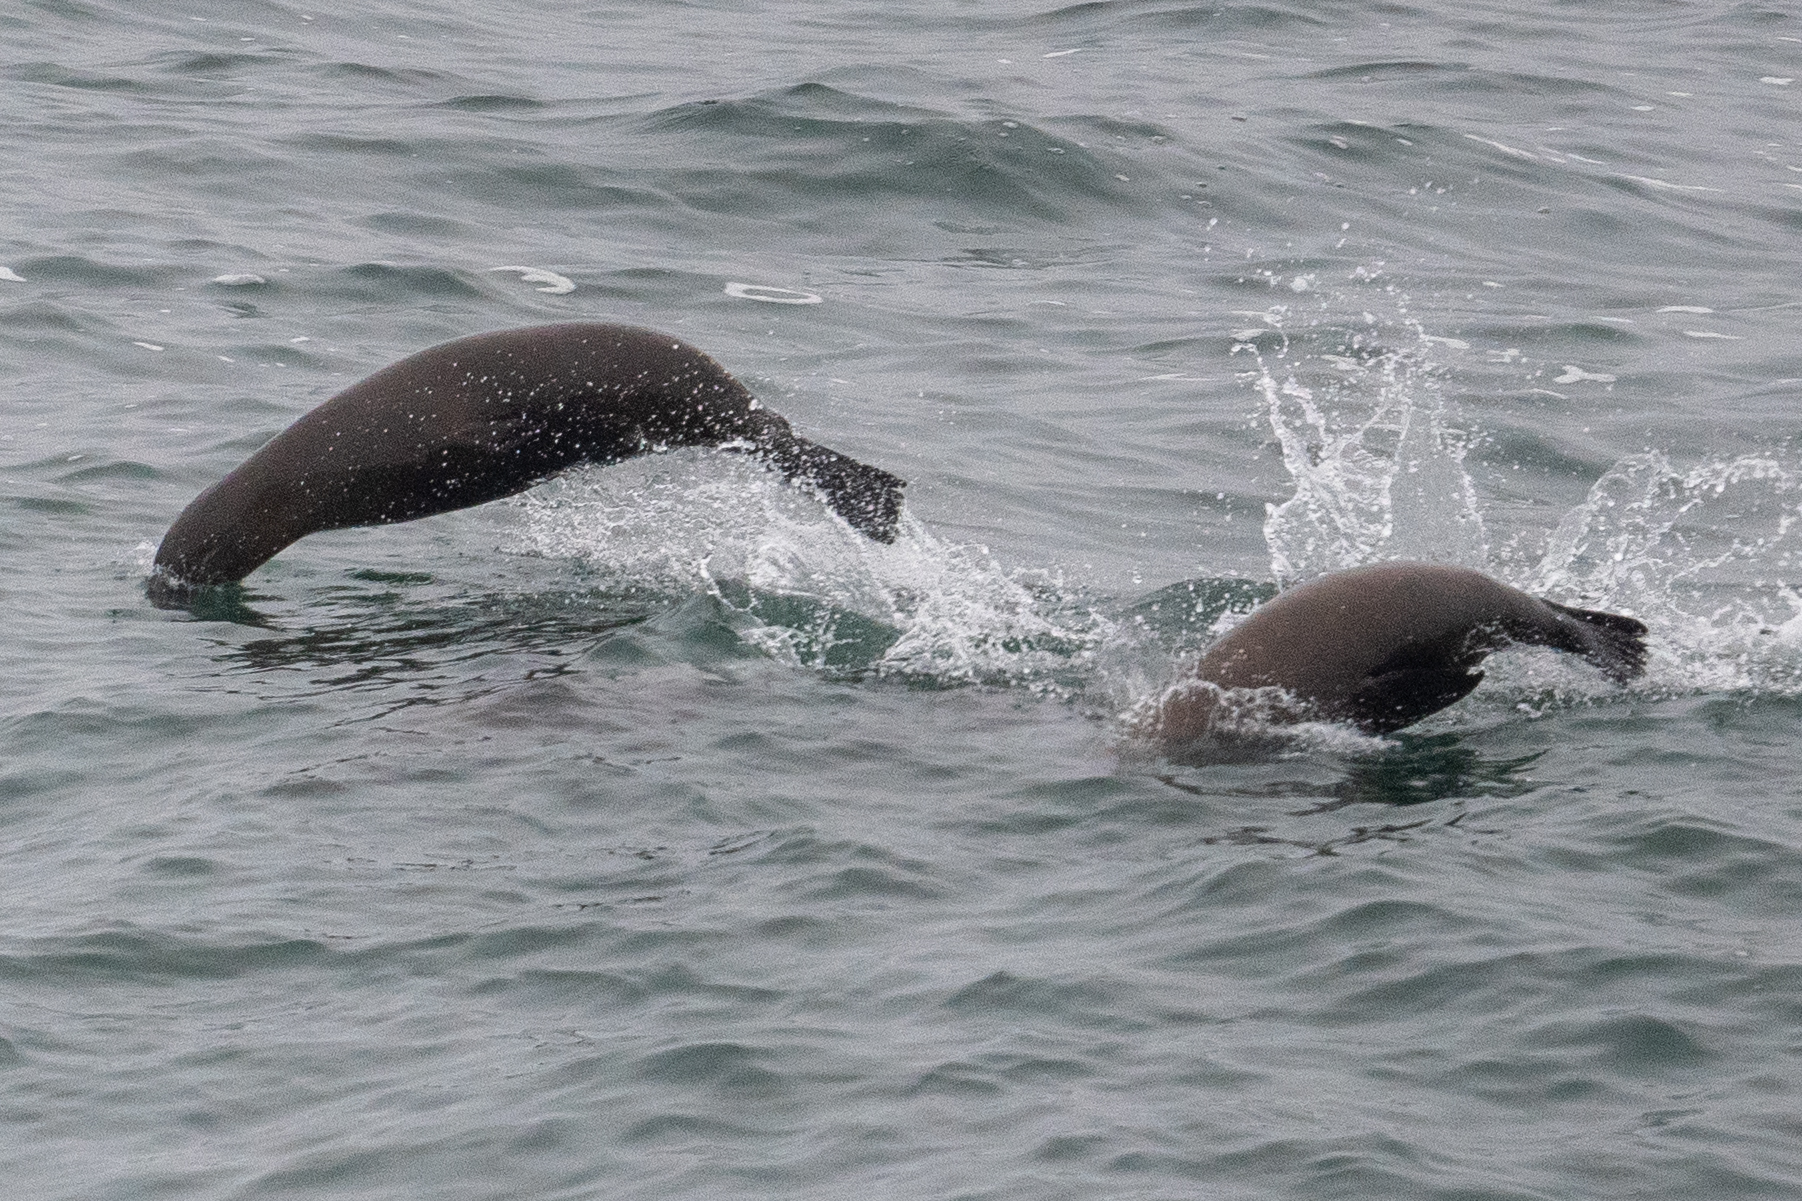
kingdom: Animalia
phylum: Chordata
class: Mammalia
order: Carnivora
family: Otariidae
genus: Zalophus
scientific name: Zalophus californianus
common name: California sea lion
